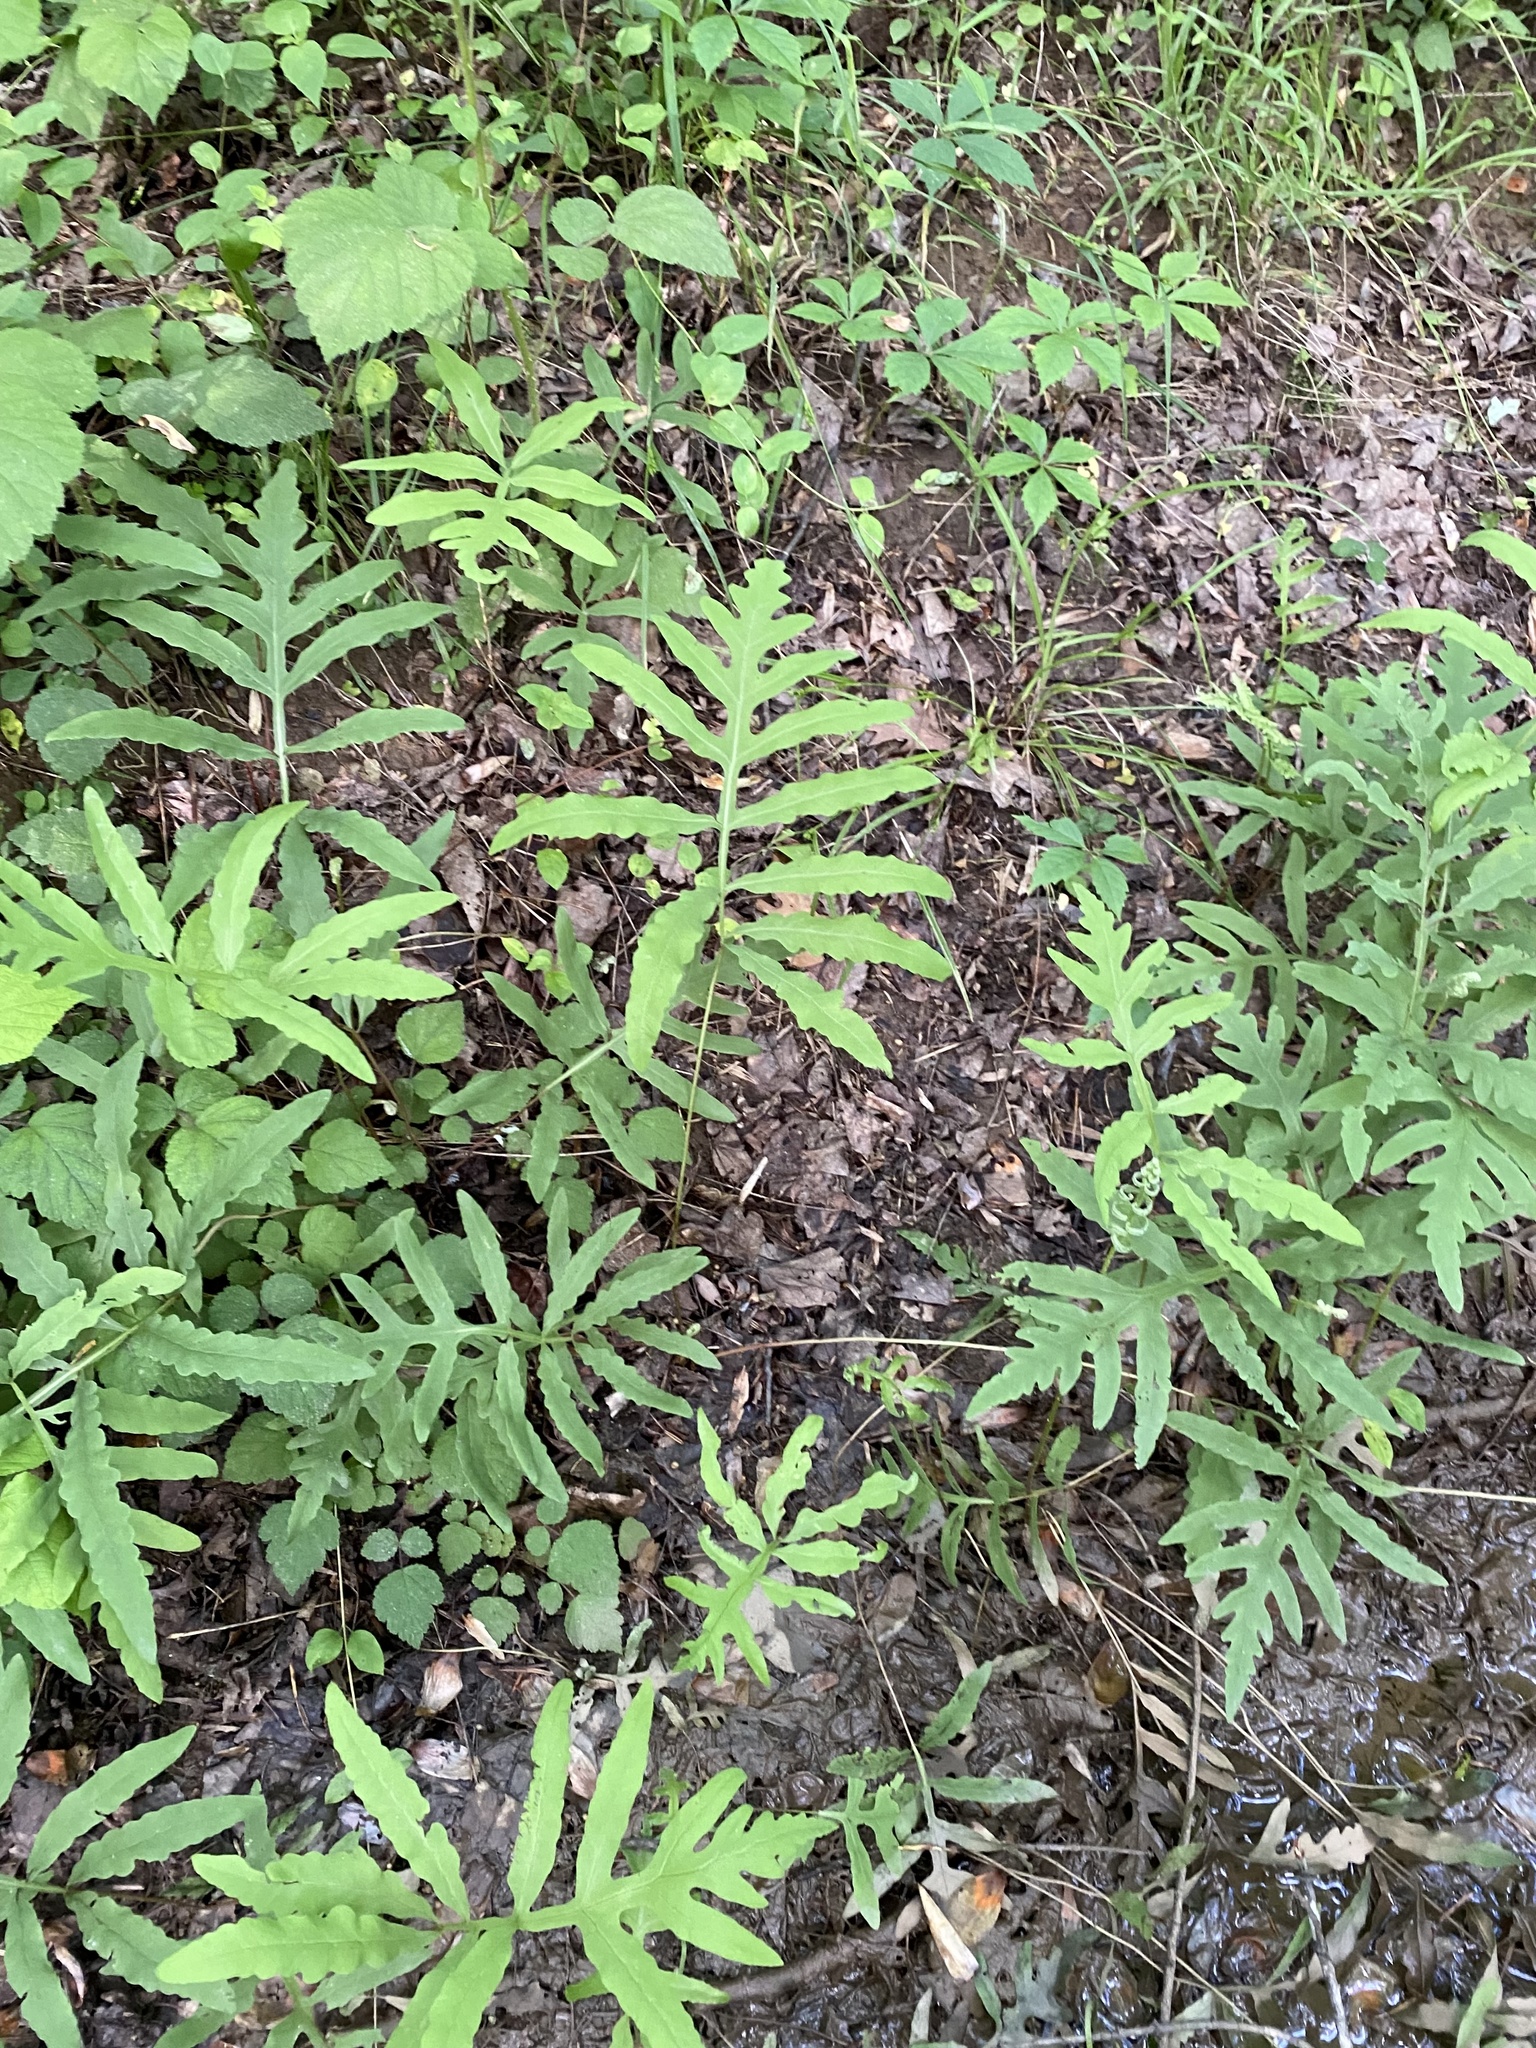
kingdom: Plantae
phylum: Tracheophyta
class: Polypodiopsida
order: Polypodiales
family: Onocleaceae
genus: Onoclea
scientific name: Onoclea sensibilis
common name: Sensitive fern
